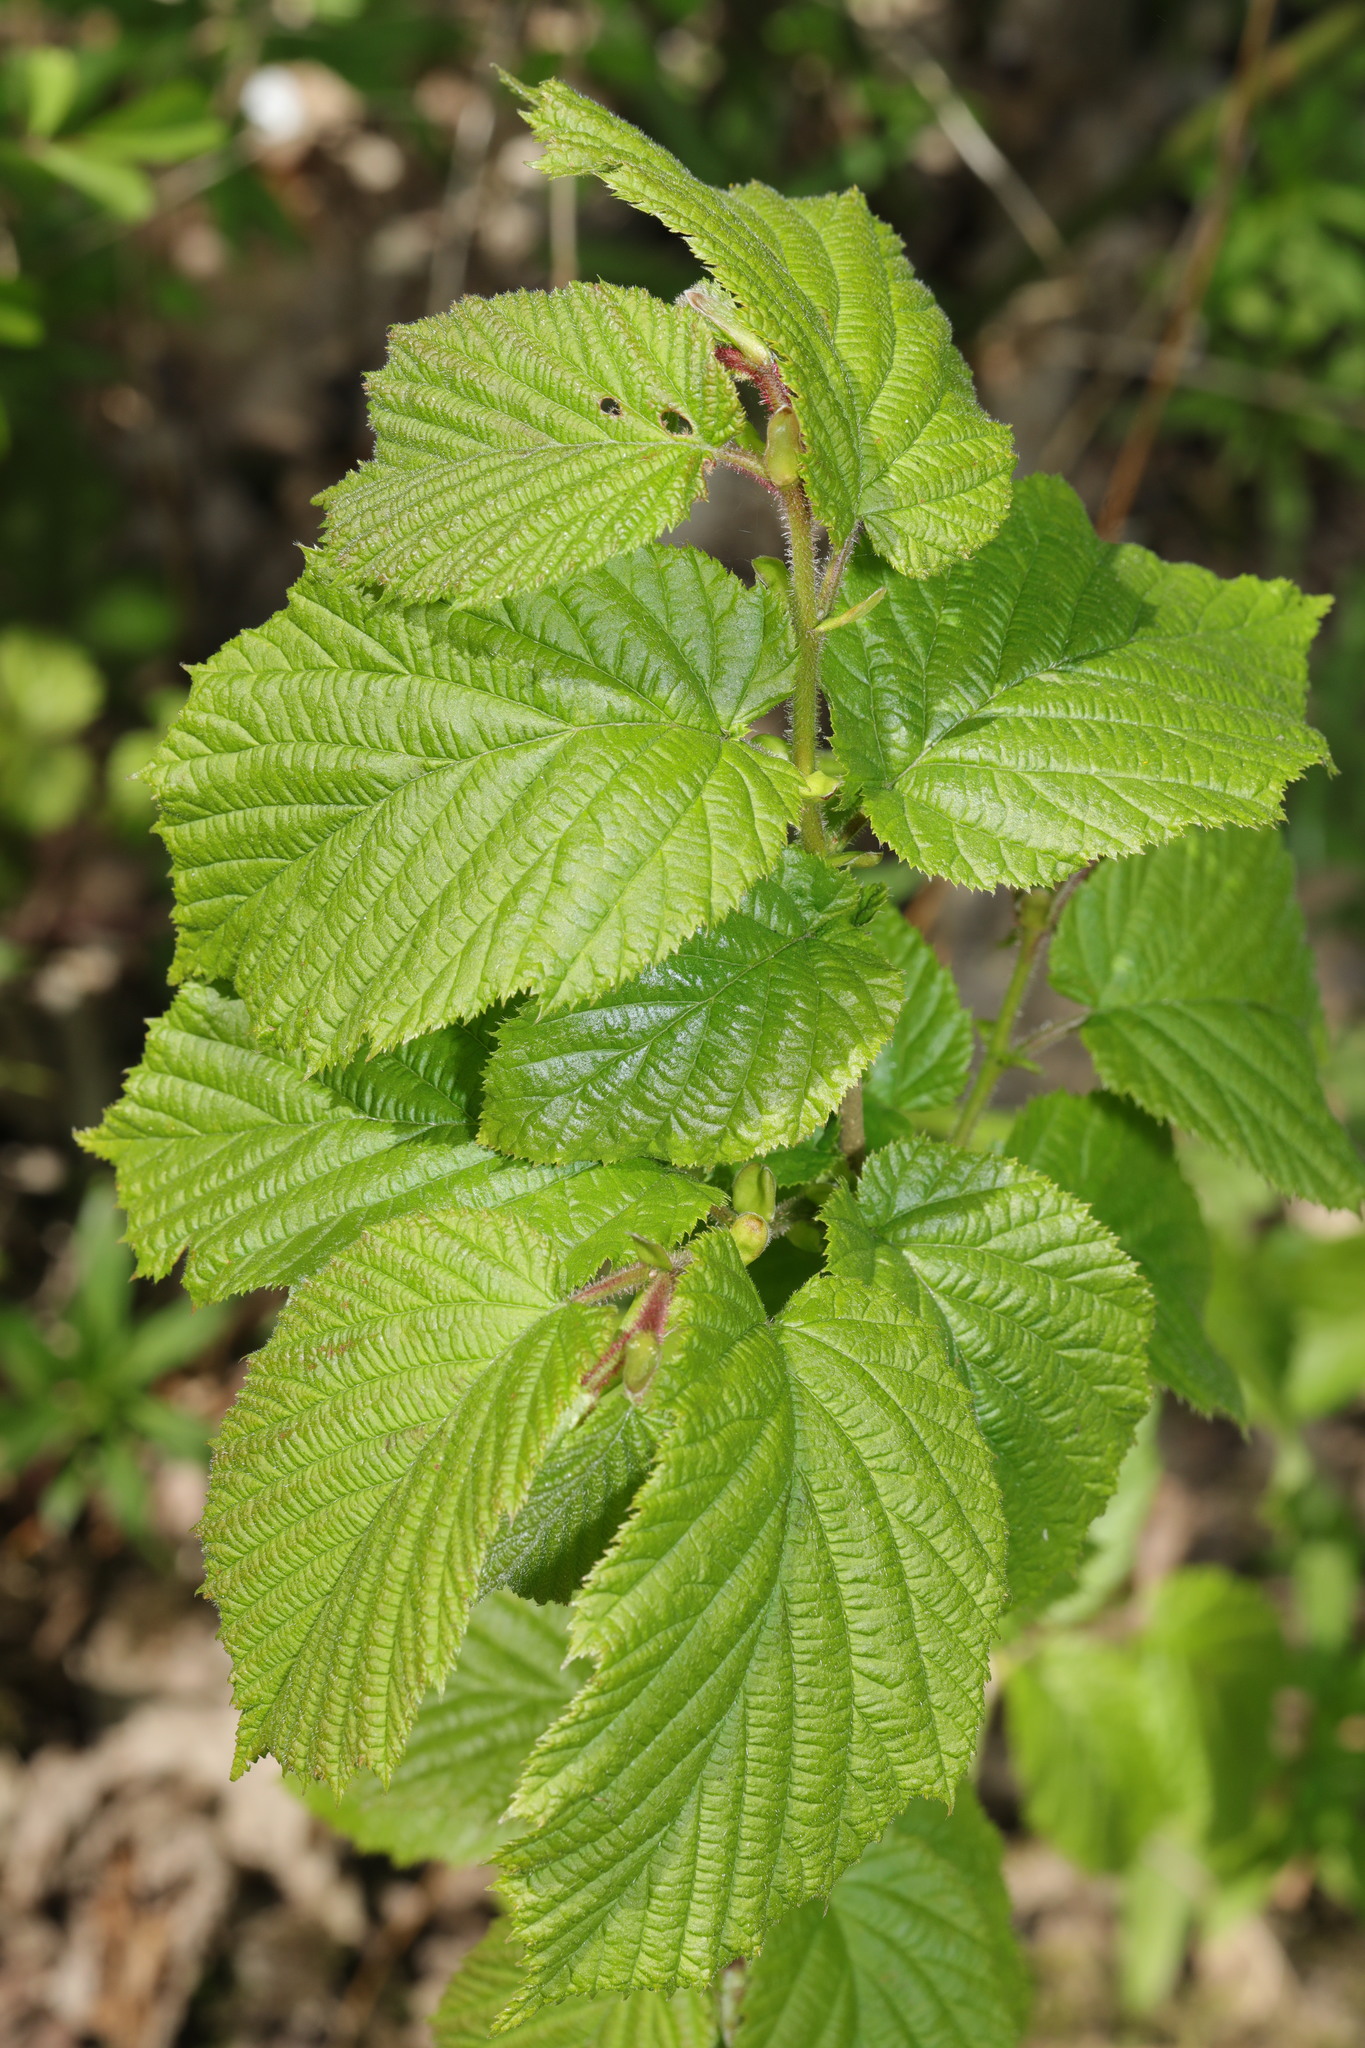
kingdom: Plantae
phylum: Tracheophyta
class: Magnoliopsida
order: Fagales
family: Betulaceae
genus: Corylus
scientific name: Corylus avellana
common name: European hazel
